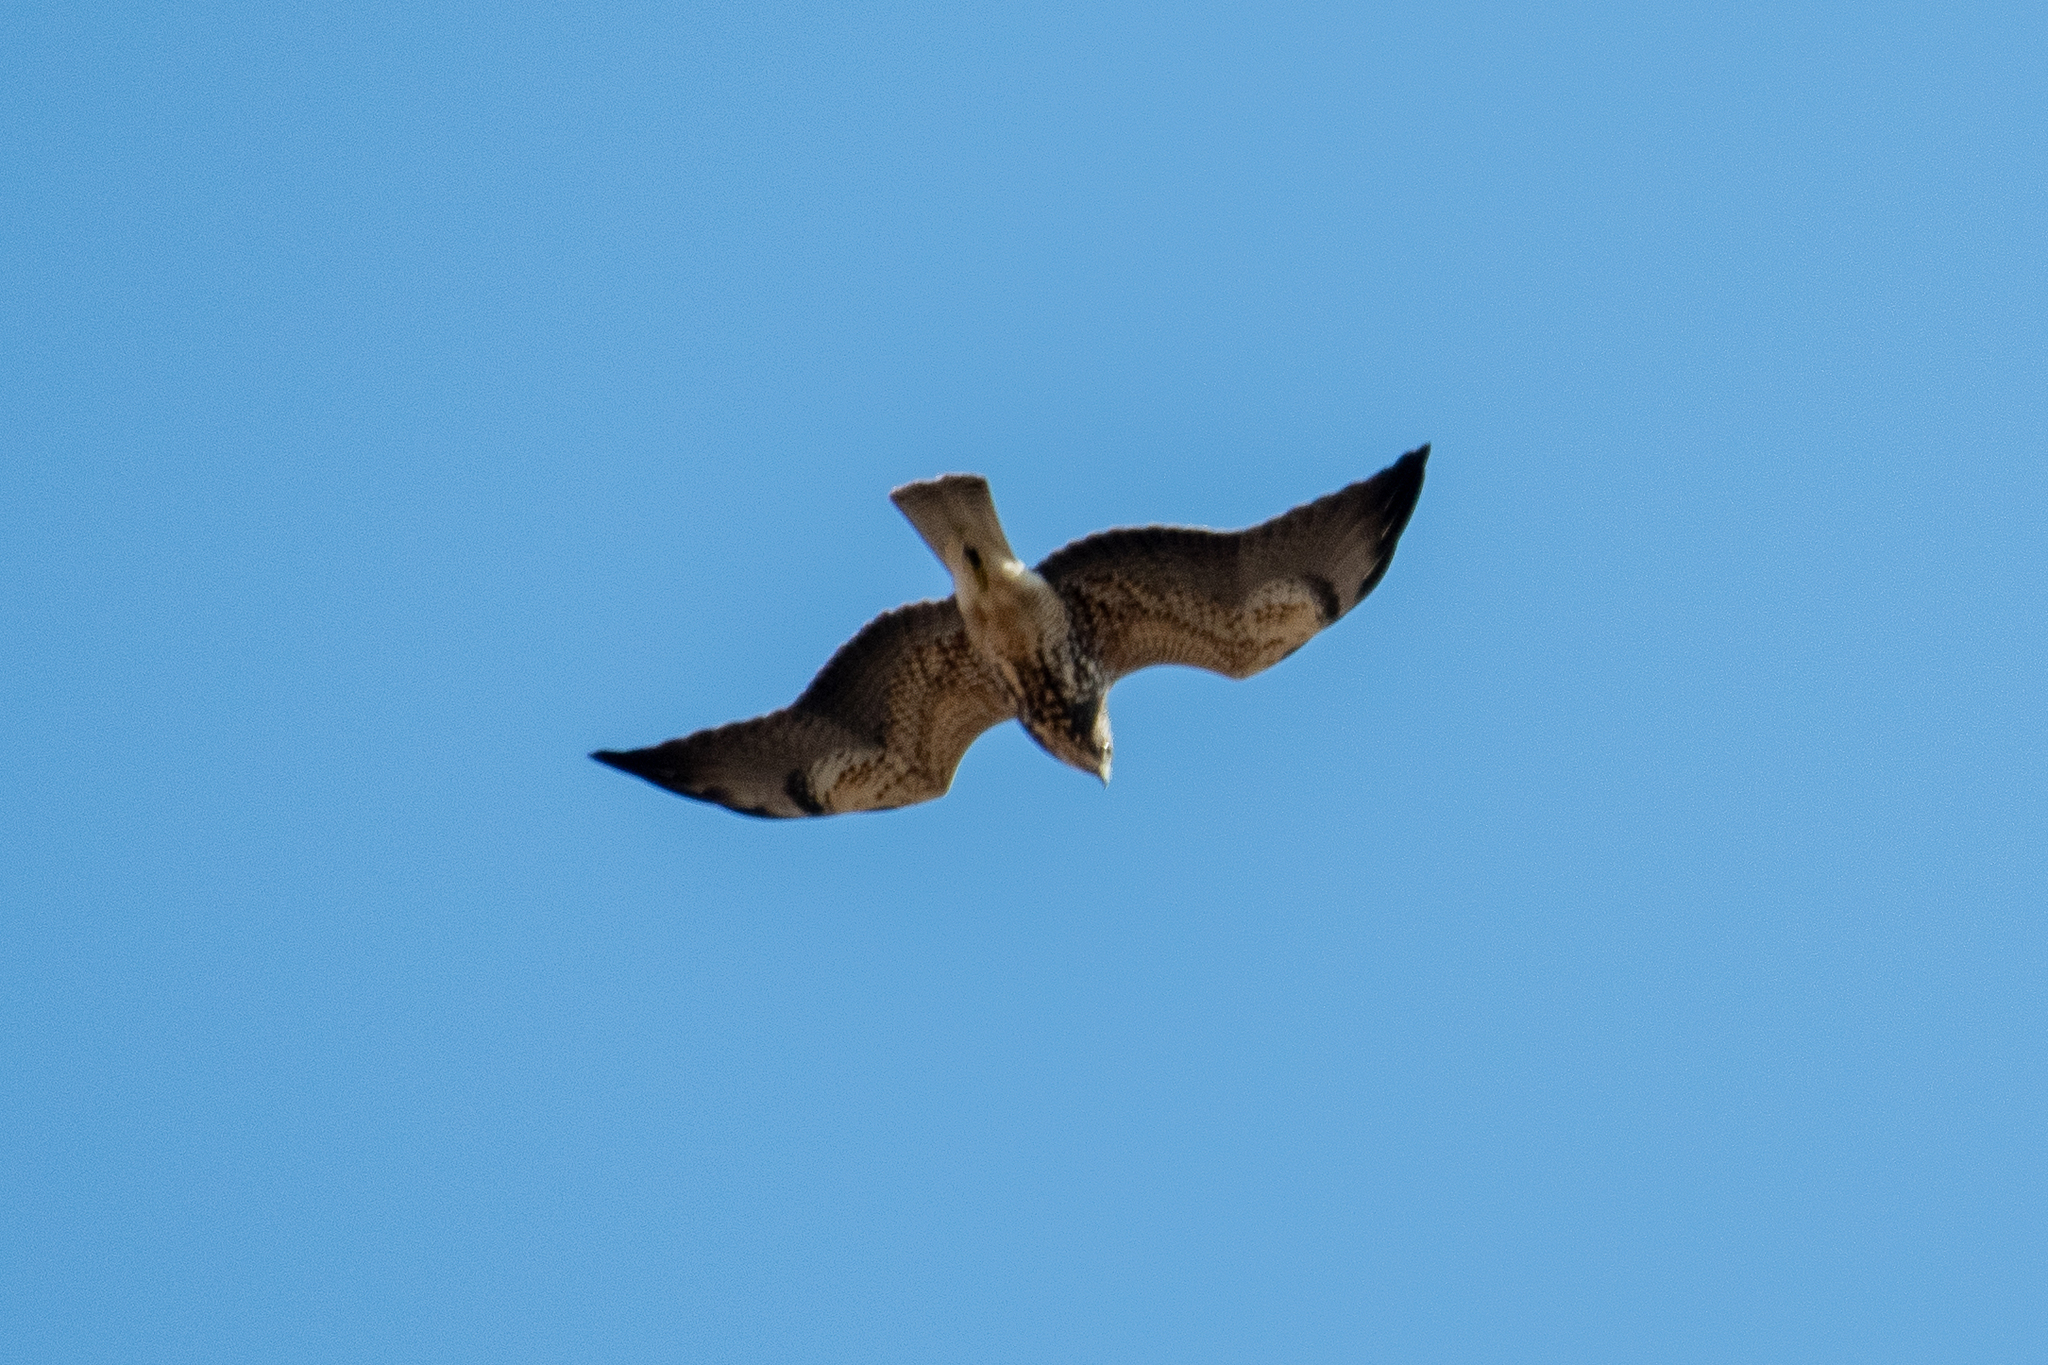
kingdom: Animalia
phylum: Chordata
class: Aves
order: Accipitriformes
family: Accipitridae
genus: Buteo
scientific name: Buteo swainsoni
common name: Swainson's hawk
